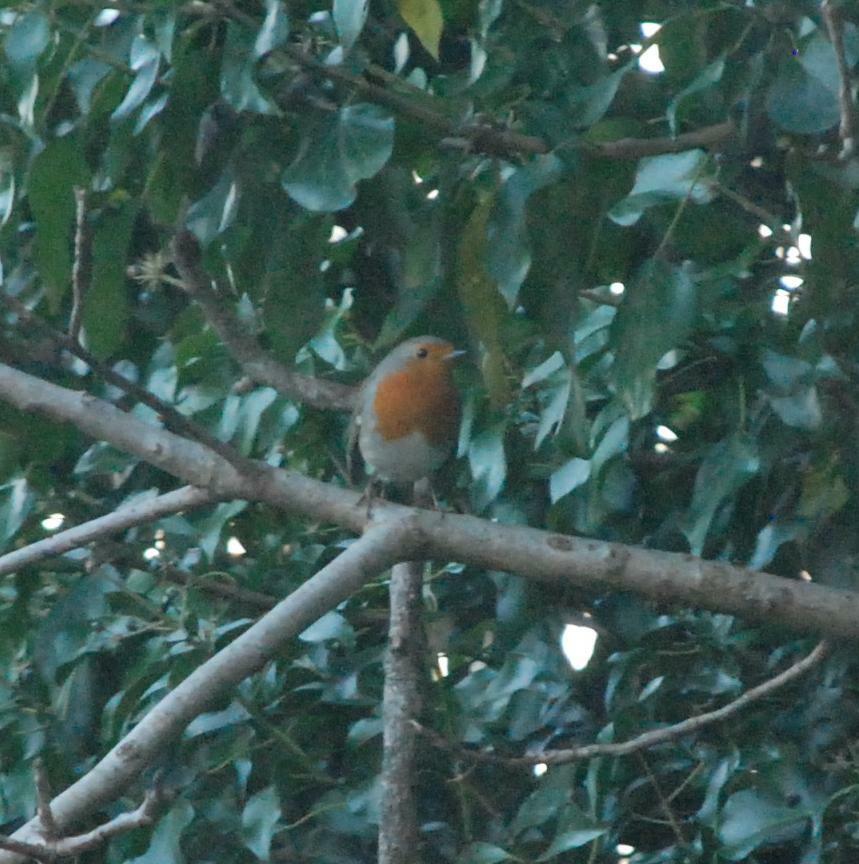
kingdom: Animalia
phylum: Chordata
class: Aves
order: Passeriformes
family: Muscicapidae
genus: Erithacus
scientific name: Erithacus rubecula
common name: European robin
